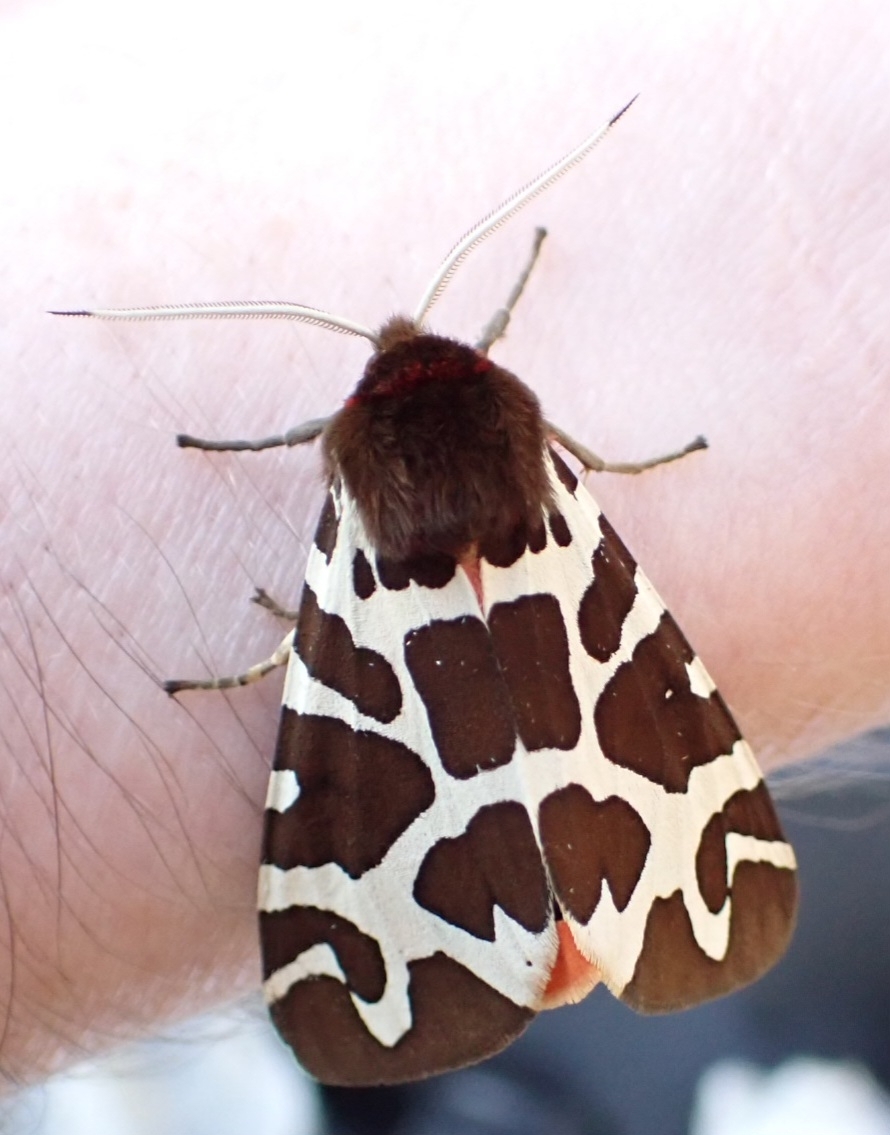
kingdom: Animalia
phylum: Arthropoda
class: Insecta
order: Lepidoptera
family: Erebidae
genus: Arctia
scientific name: Arctia caja
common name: Garden tiger
